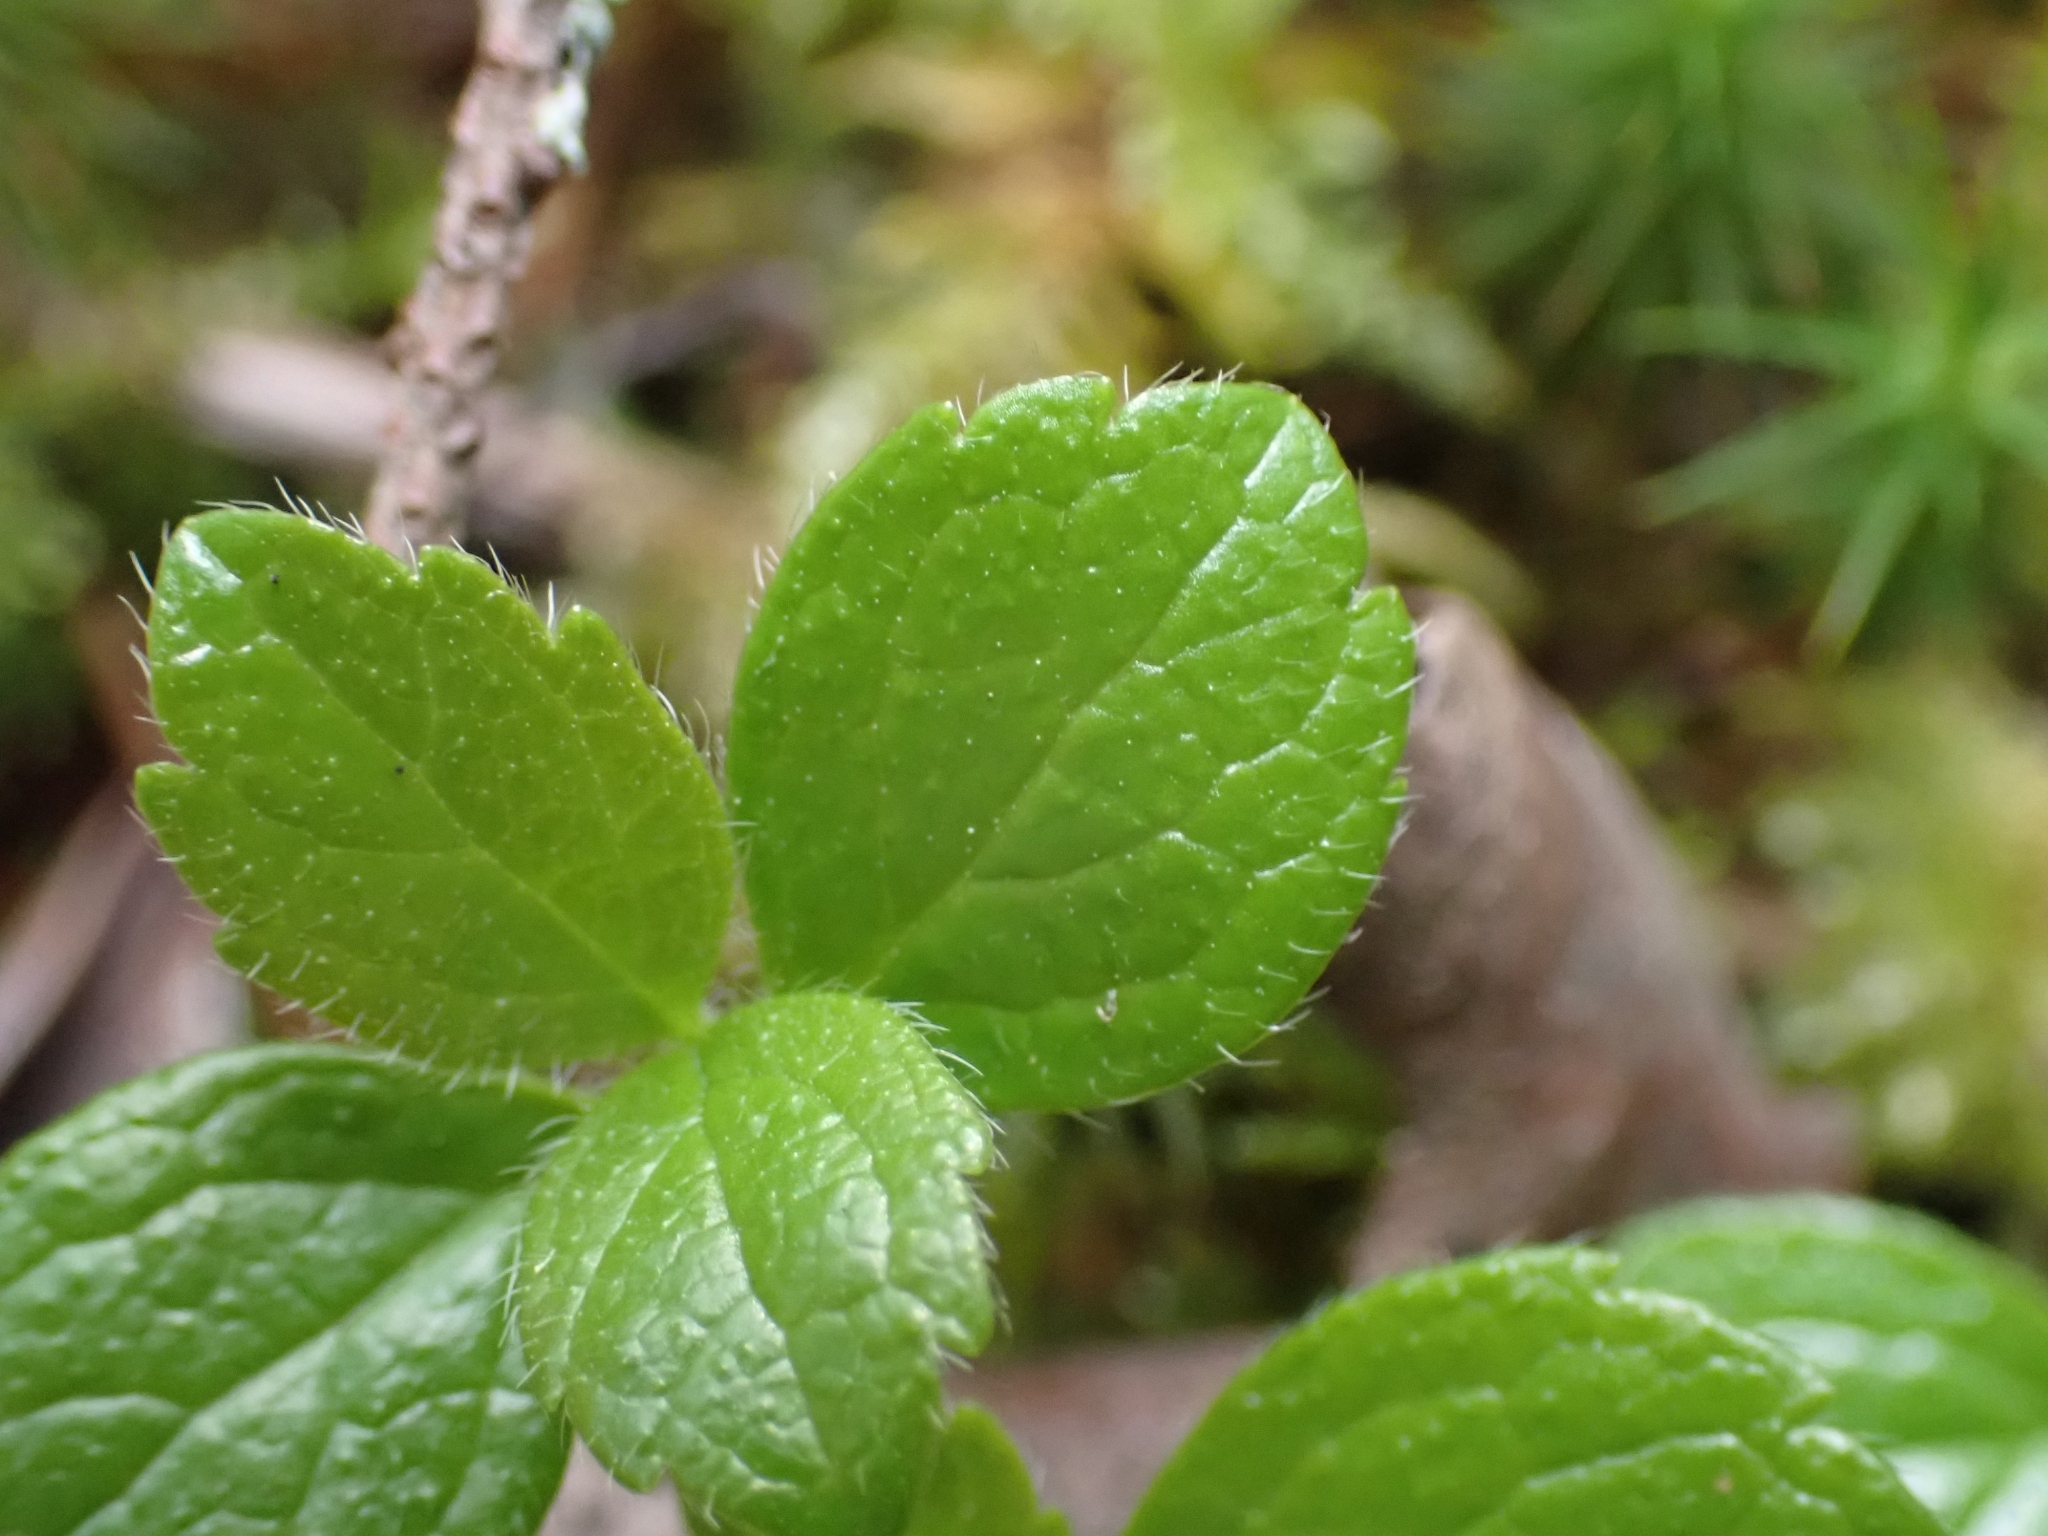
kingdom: Plantae
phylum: Tracheophyta
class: Magnoliopsida
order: Dipsacales
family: Caprifoliaceae
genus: Linnaea
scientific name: Linnaea borealis
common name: Twinflower
